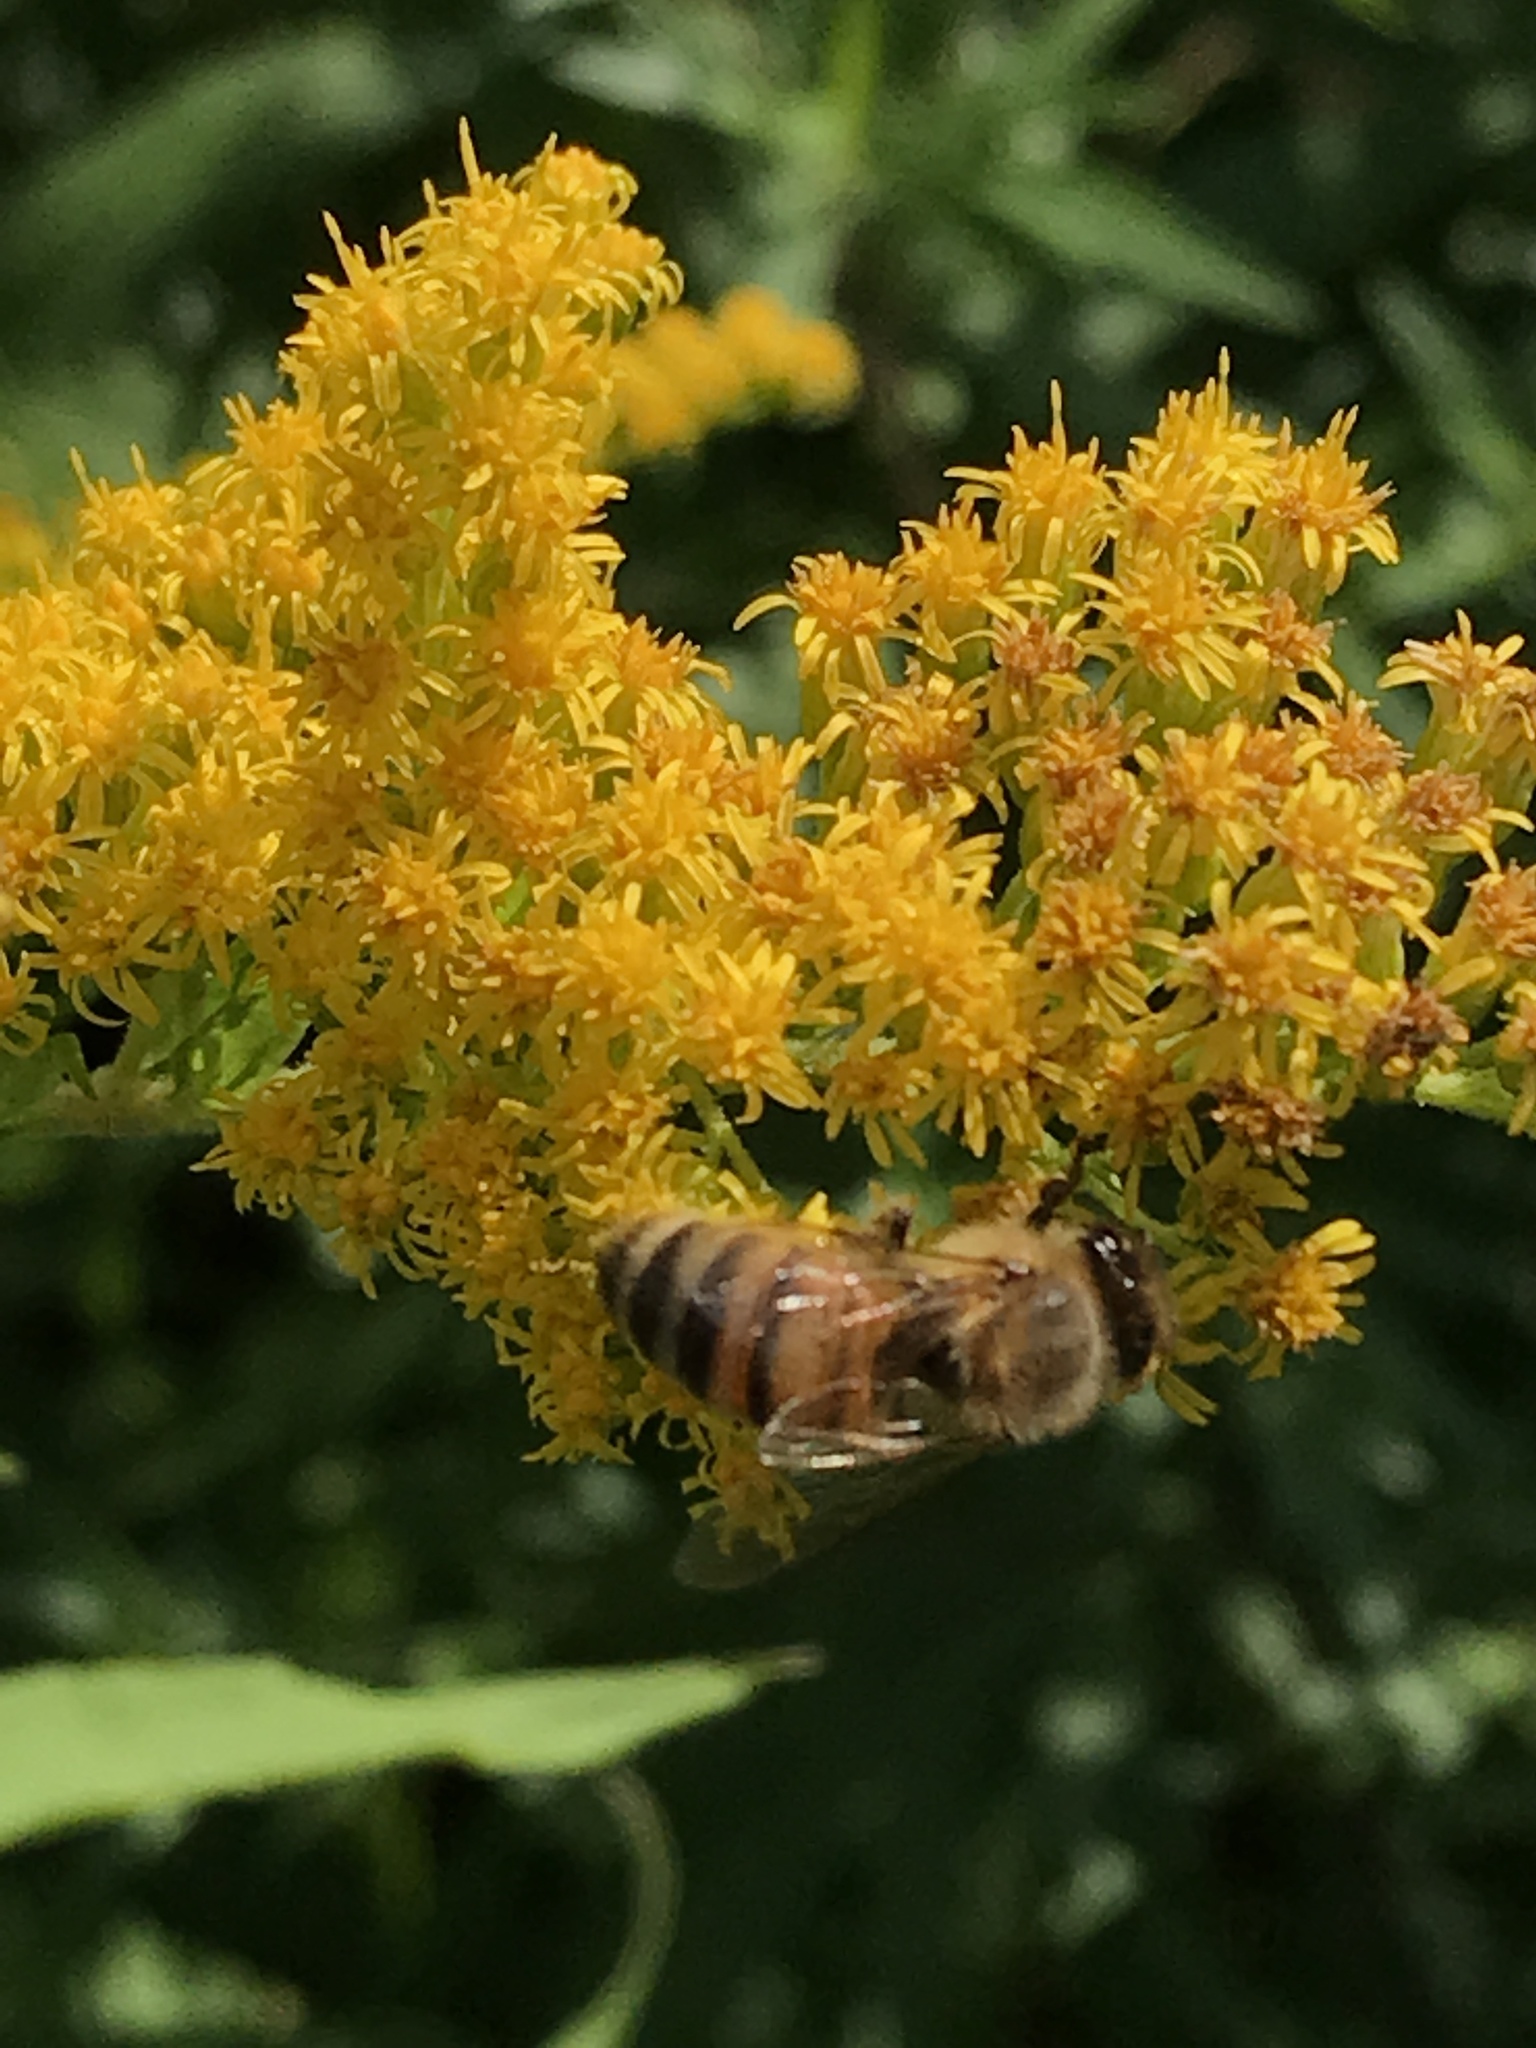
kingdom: Animalia
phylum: Arthropoda
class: Insecta
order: Hymenoptera
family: Apidae
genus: Apis
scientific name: Apis mellifera
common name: Honey bee
